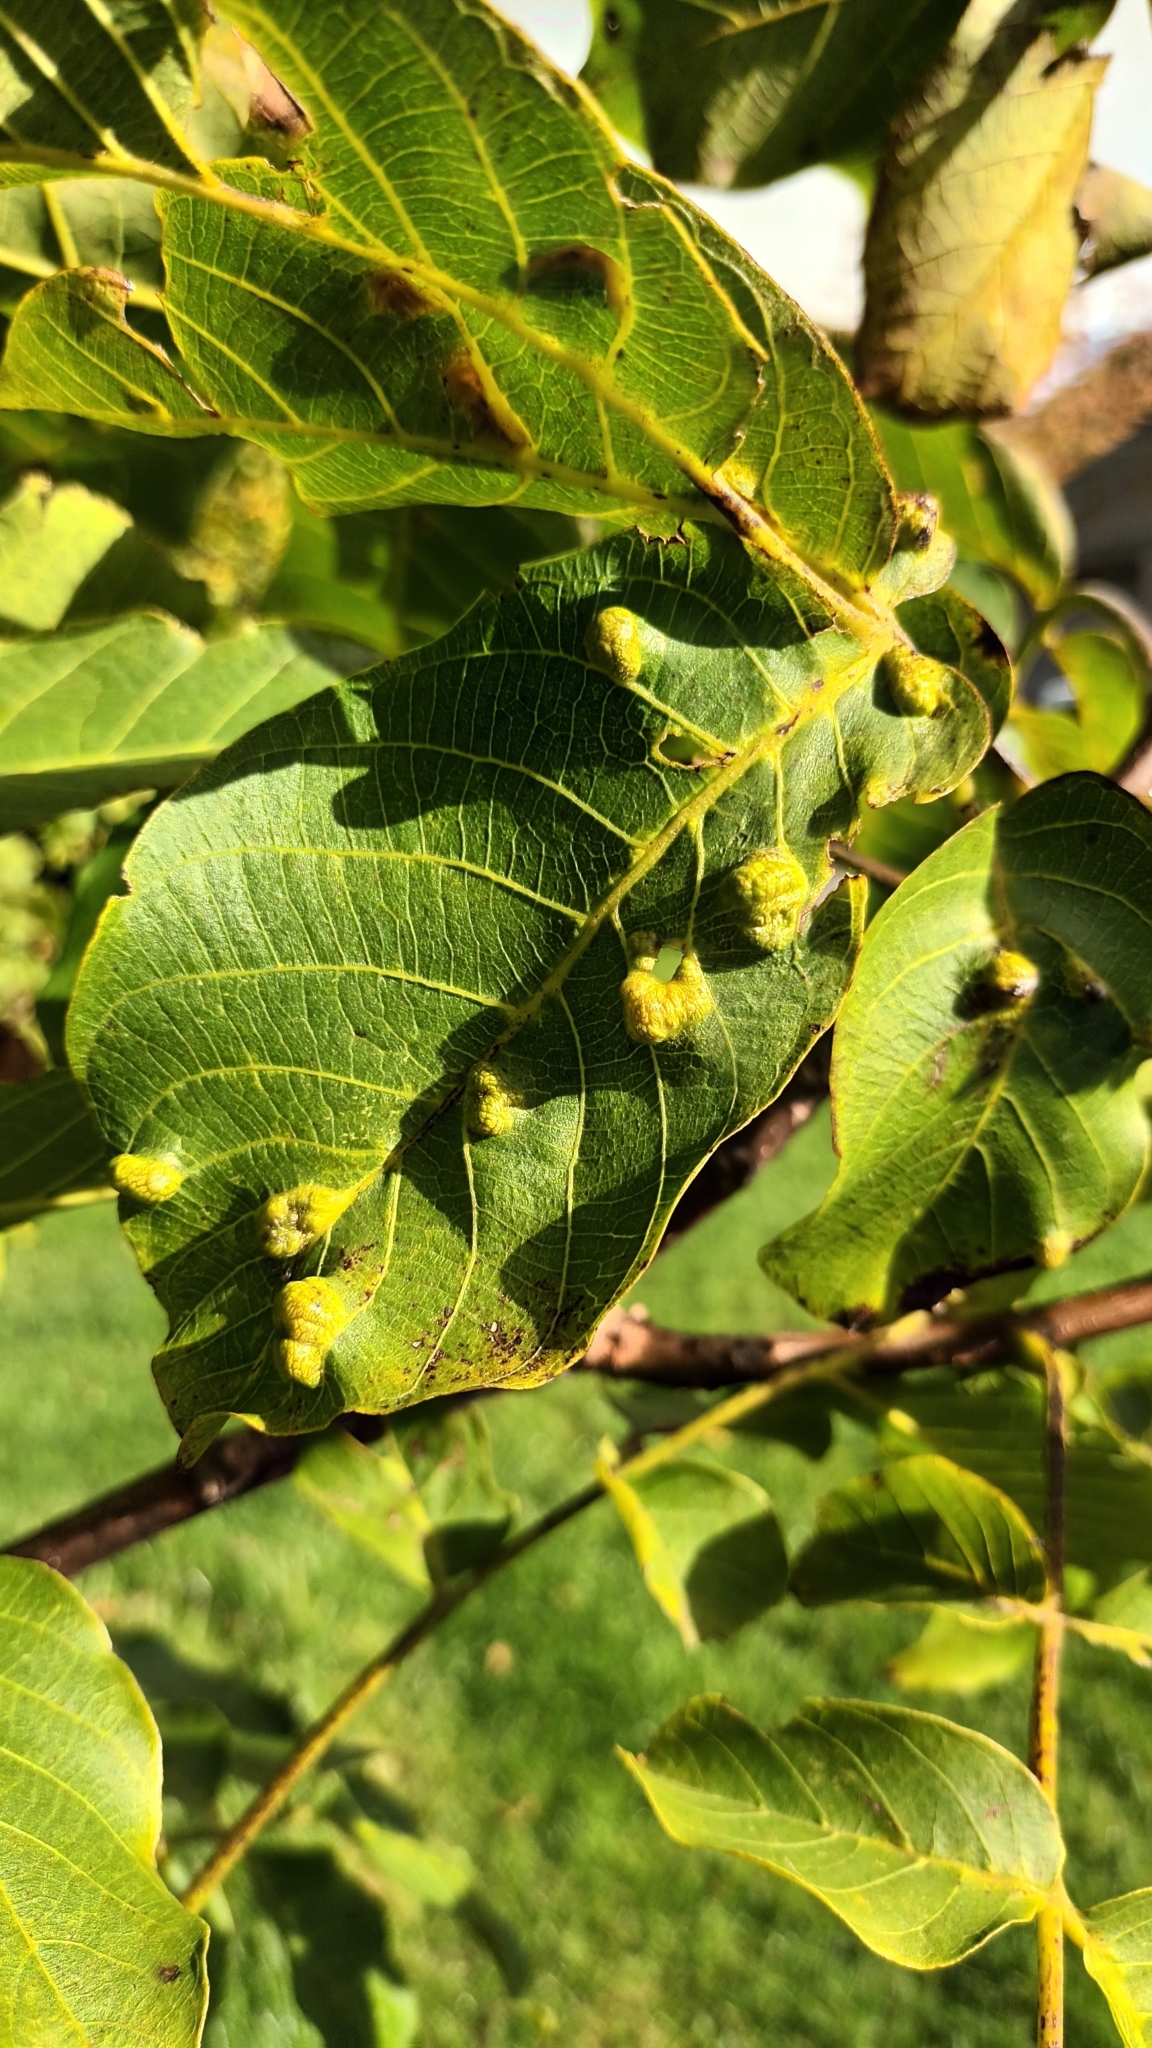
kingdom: Animalia
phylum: Arthropoda
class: Arachnida
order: Trombidiformes
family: Eriophyidae
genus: Aceria
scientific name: Aceria erinea
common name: Persian walnut erineum mite
